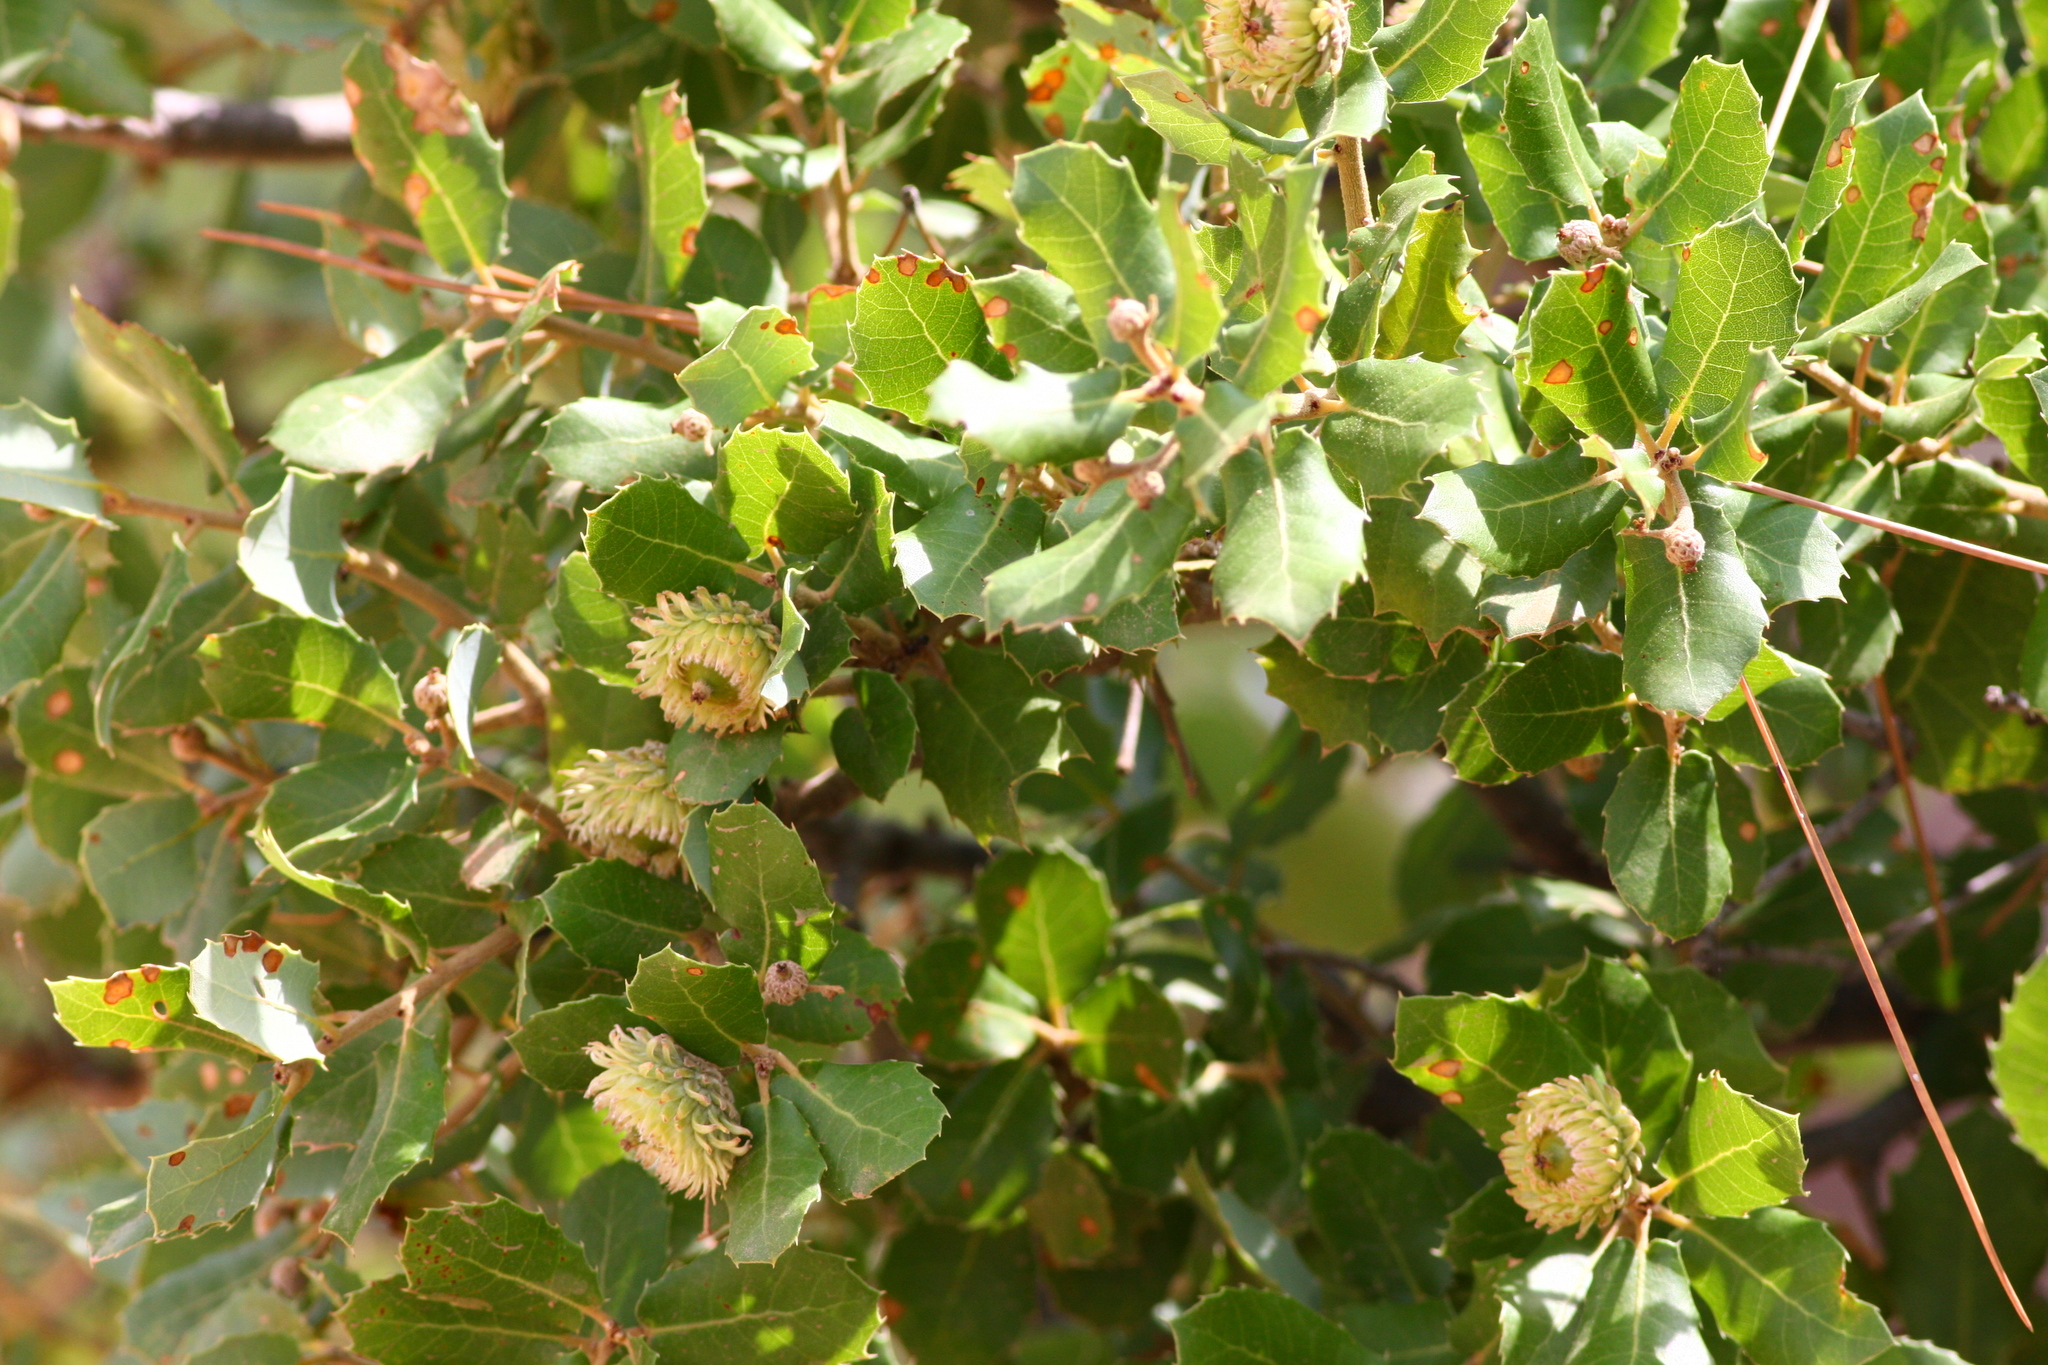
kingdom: Plantae
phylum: Tracheophyta
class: Magnoliopsida
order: Fagales
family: Fagaceae
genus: Quercus
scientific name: Quercus coccifera
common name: Kermes oak
